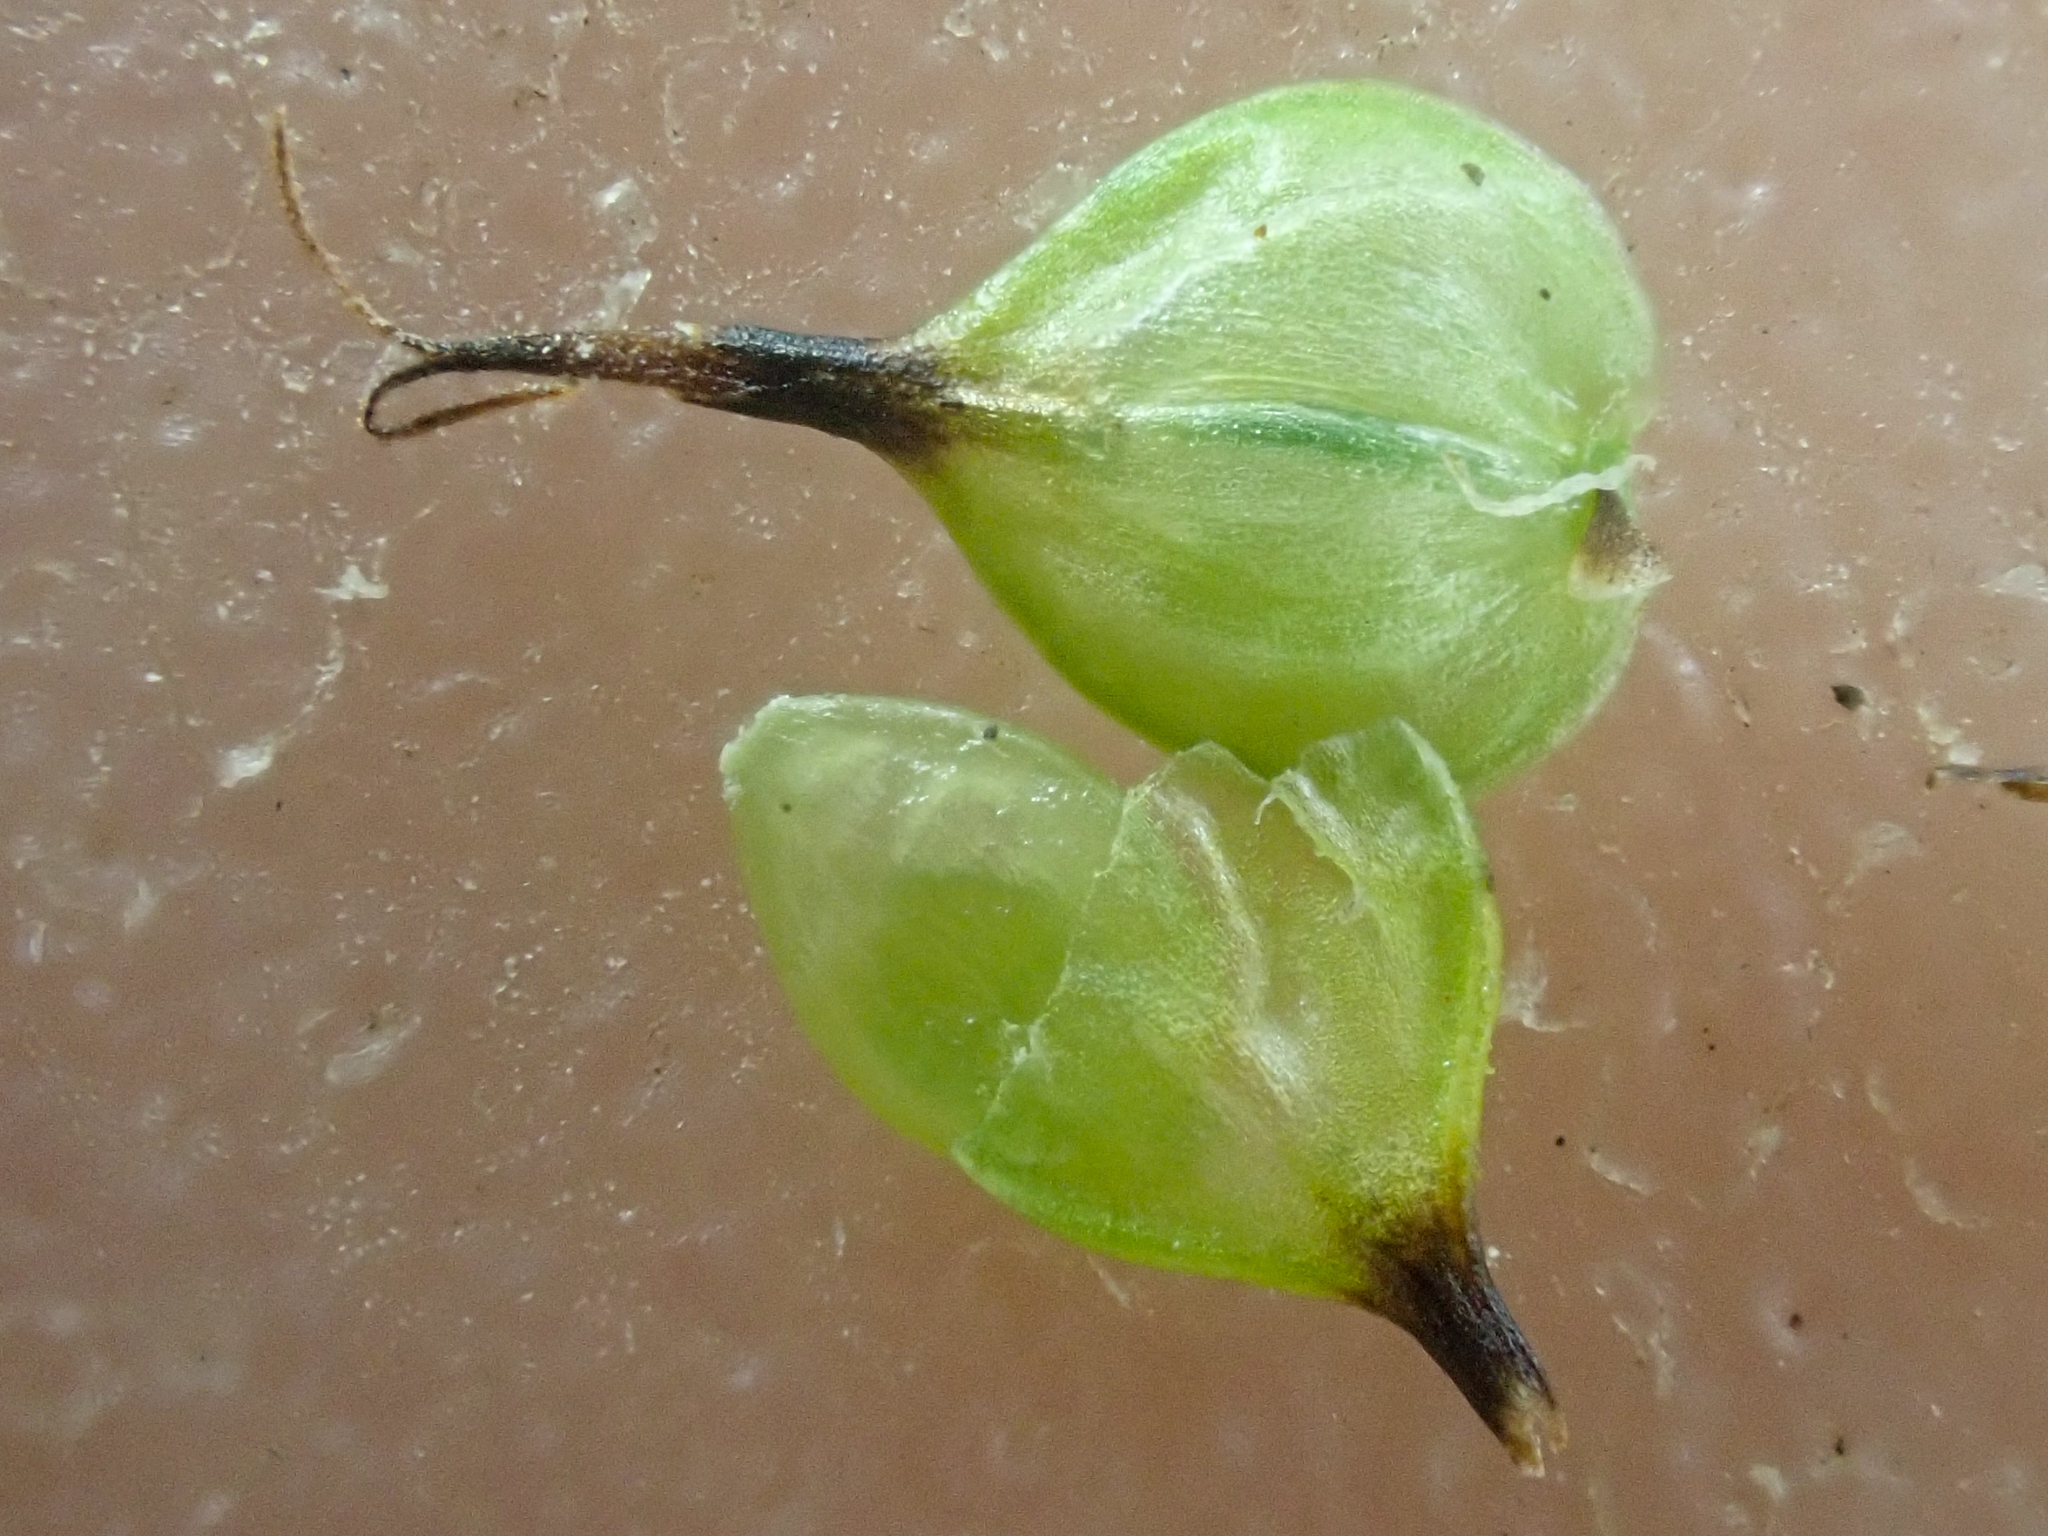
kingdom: Plantae
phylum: Tracheophyta
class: Liliopsida
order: Poales
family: Cyperaceae
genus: Carex
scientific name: Carex capitata
